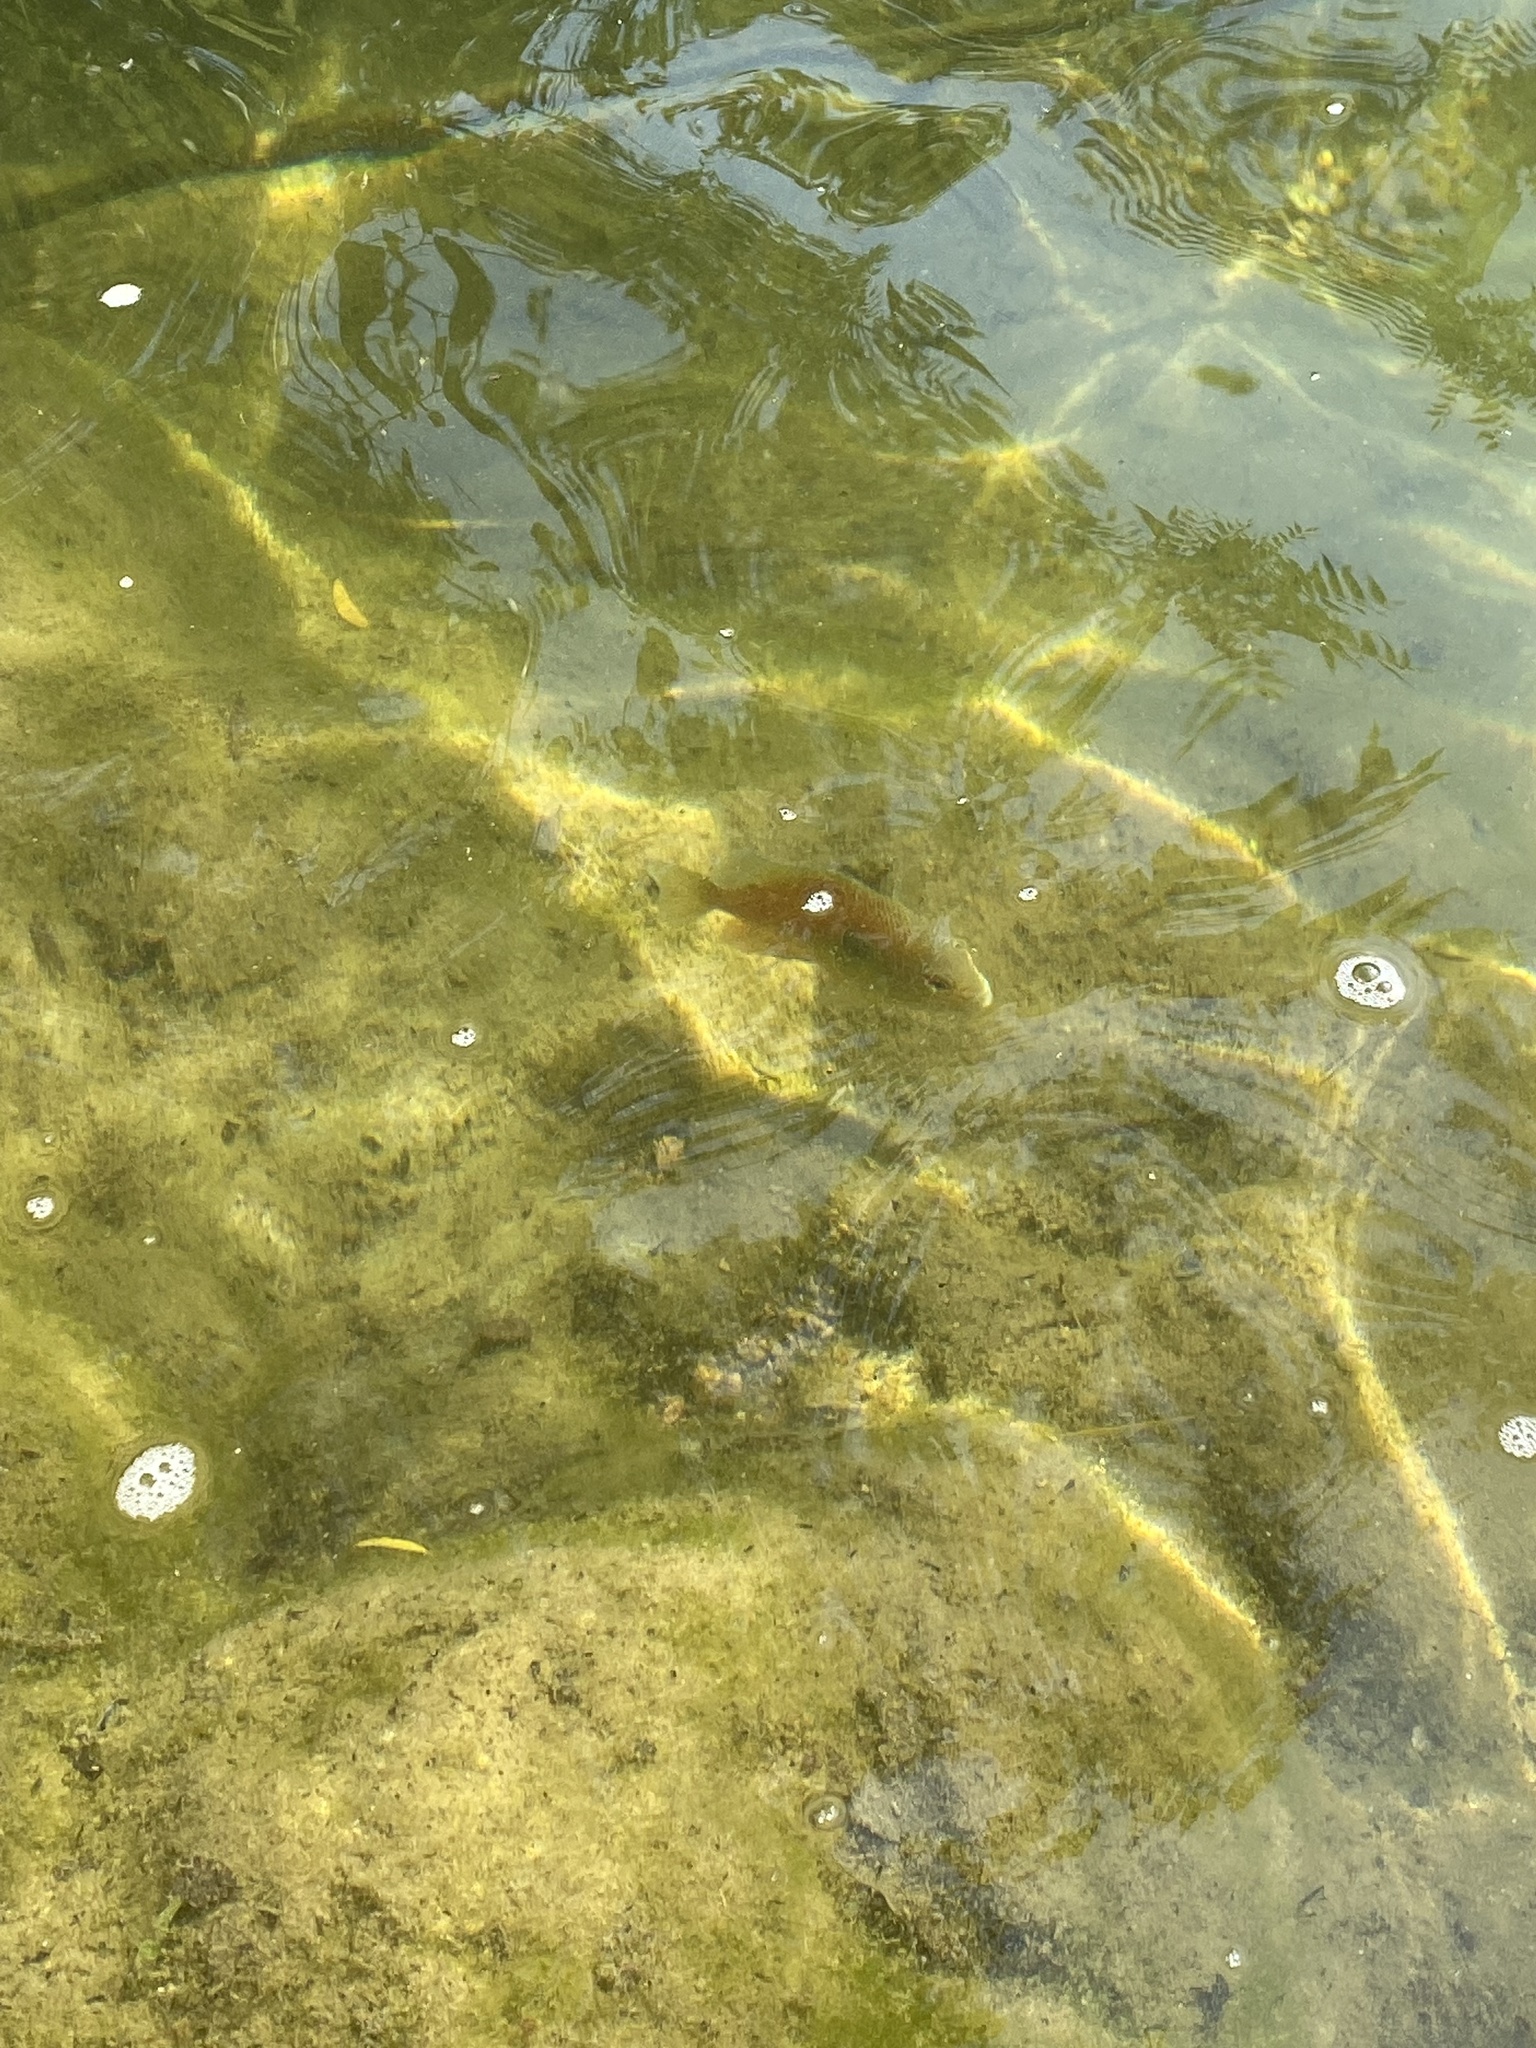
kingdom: Animalia
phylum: Chordata
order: Perciformes
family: Centrarchidae
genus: Lepomis
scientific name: Lepomis megalotis
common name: Longear sunfish
